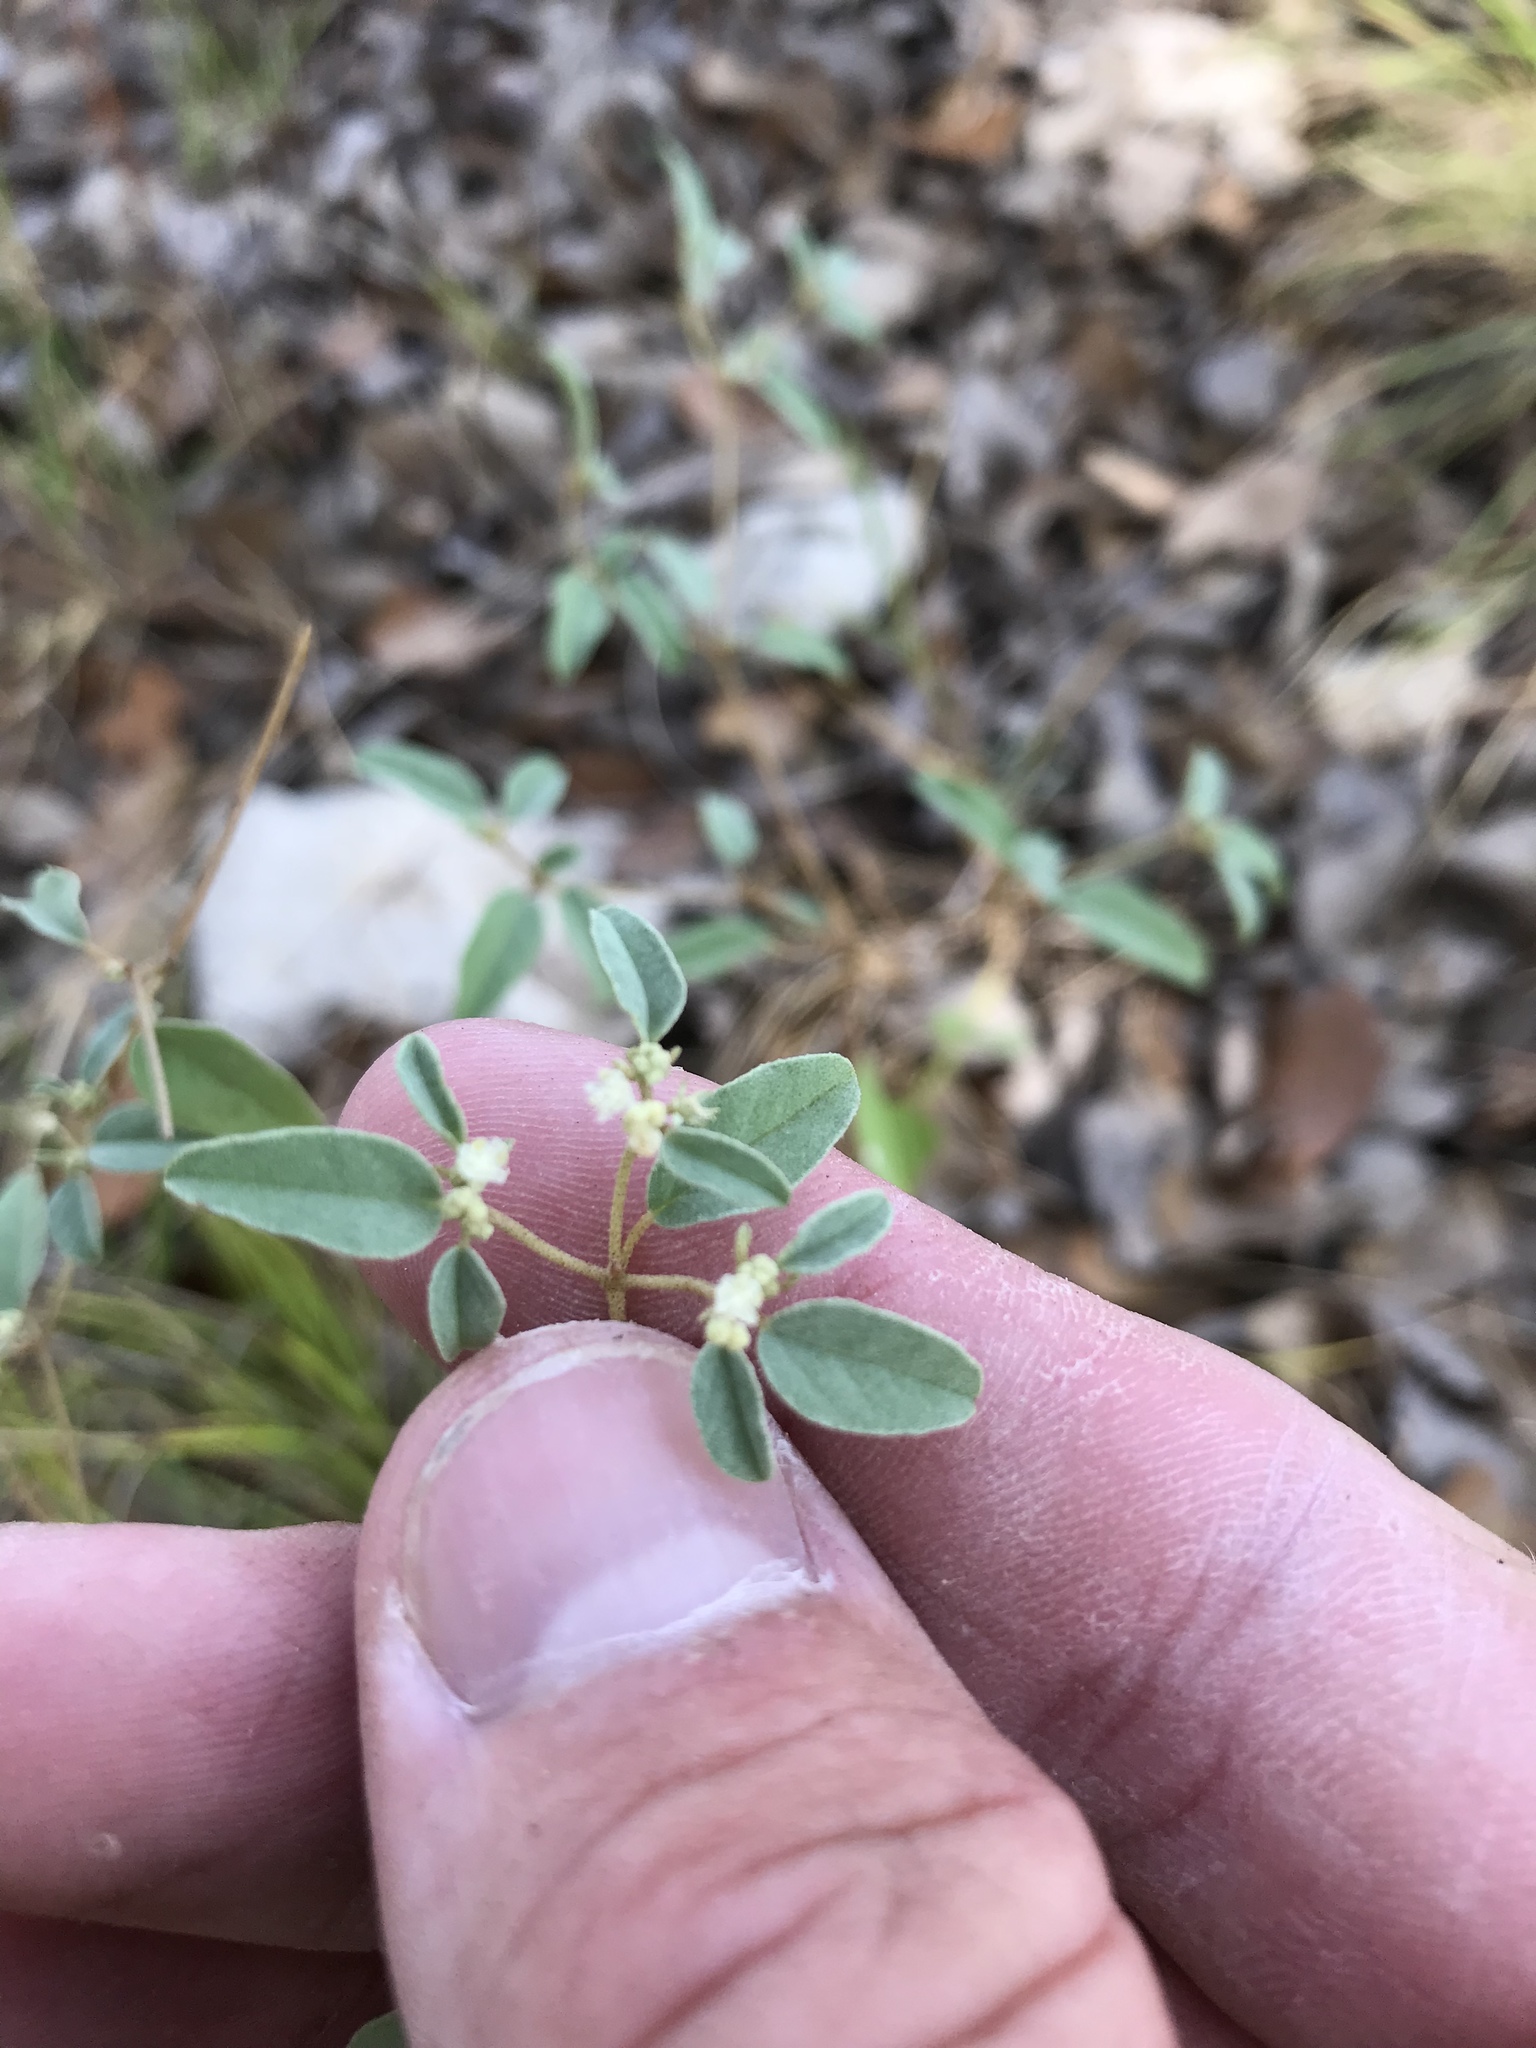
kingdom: Plantae
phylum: Tracheophyta
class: Magnoliopsida
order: Malpighiales
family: Euphorbiaceae
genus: Croton
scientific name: Croton monanthogynus
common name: One-seed croton
